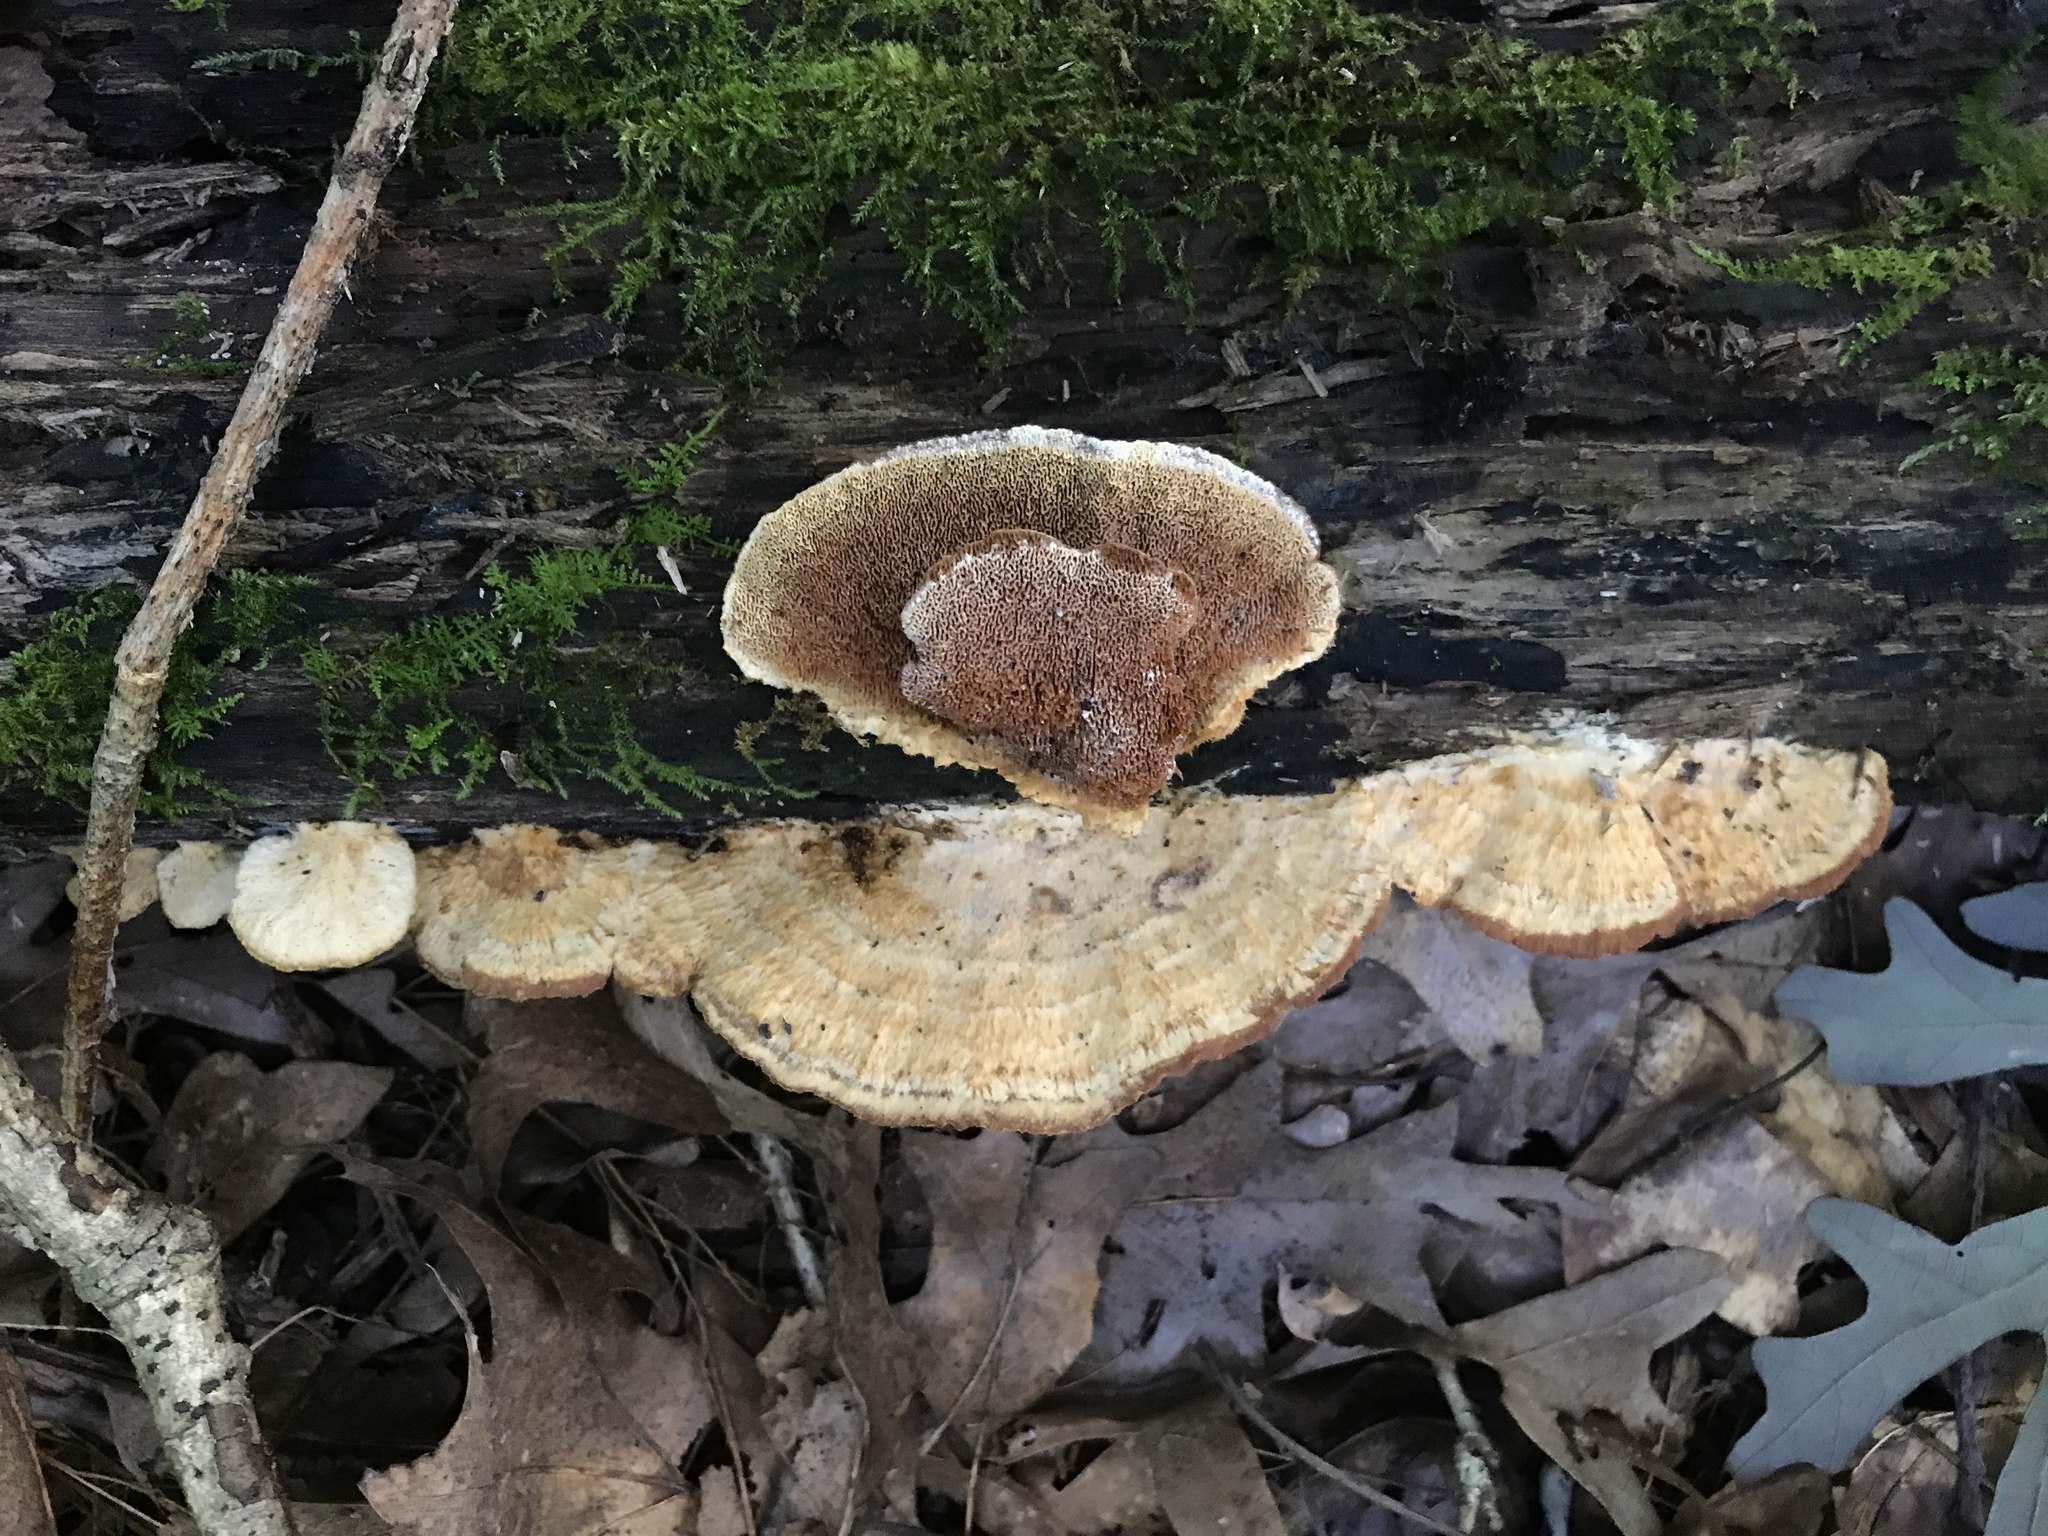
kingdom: Fungi
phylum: Basidiomycota
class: Agaricomycetes
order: Polyporales
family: Irpicaceae
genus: Trametopsis
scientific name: Trametopsis cervina
